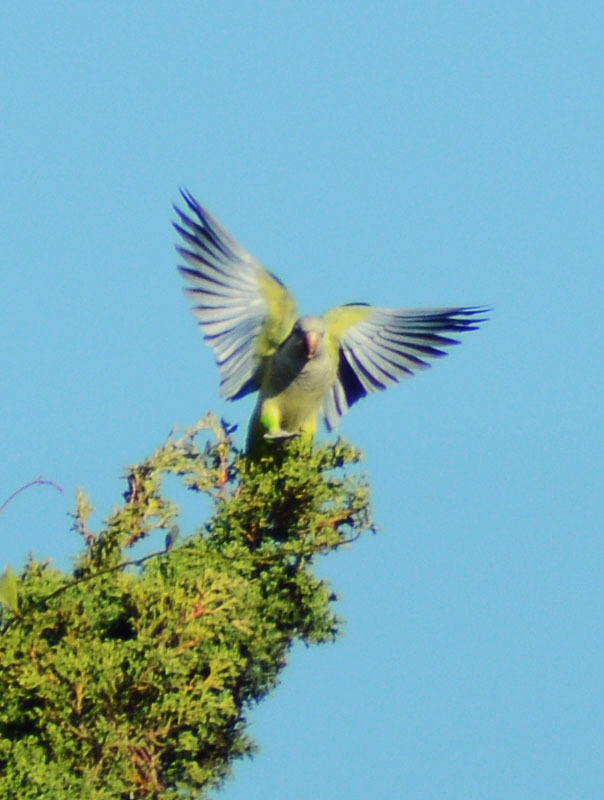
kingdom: Animalia
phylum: Chordata
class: Aves
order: Psittaciformes
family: Psittacidae
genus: Myiopsitta
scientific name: Myiopsitta monachus
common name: Monk parakeet
